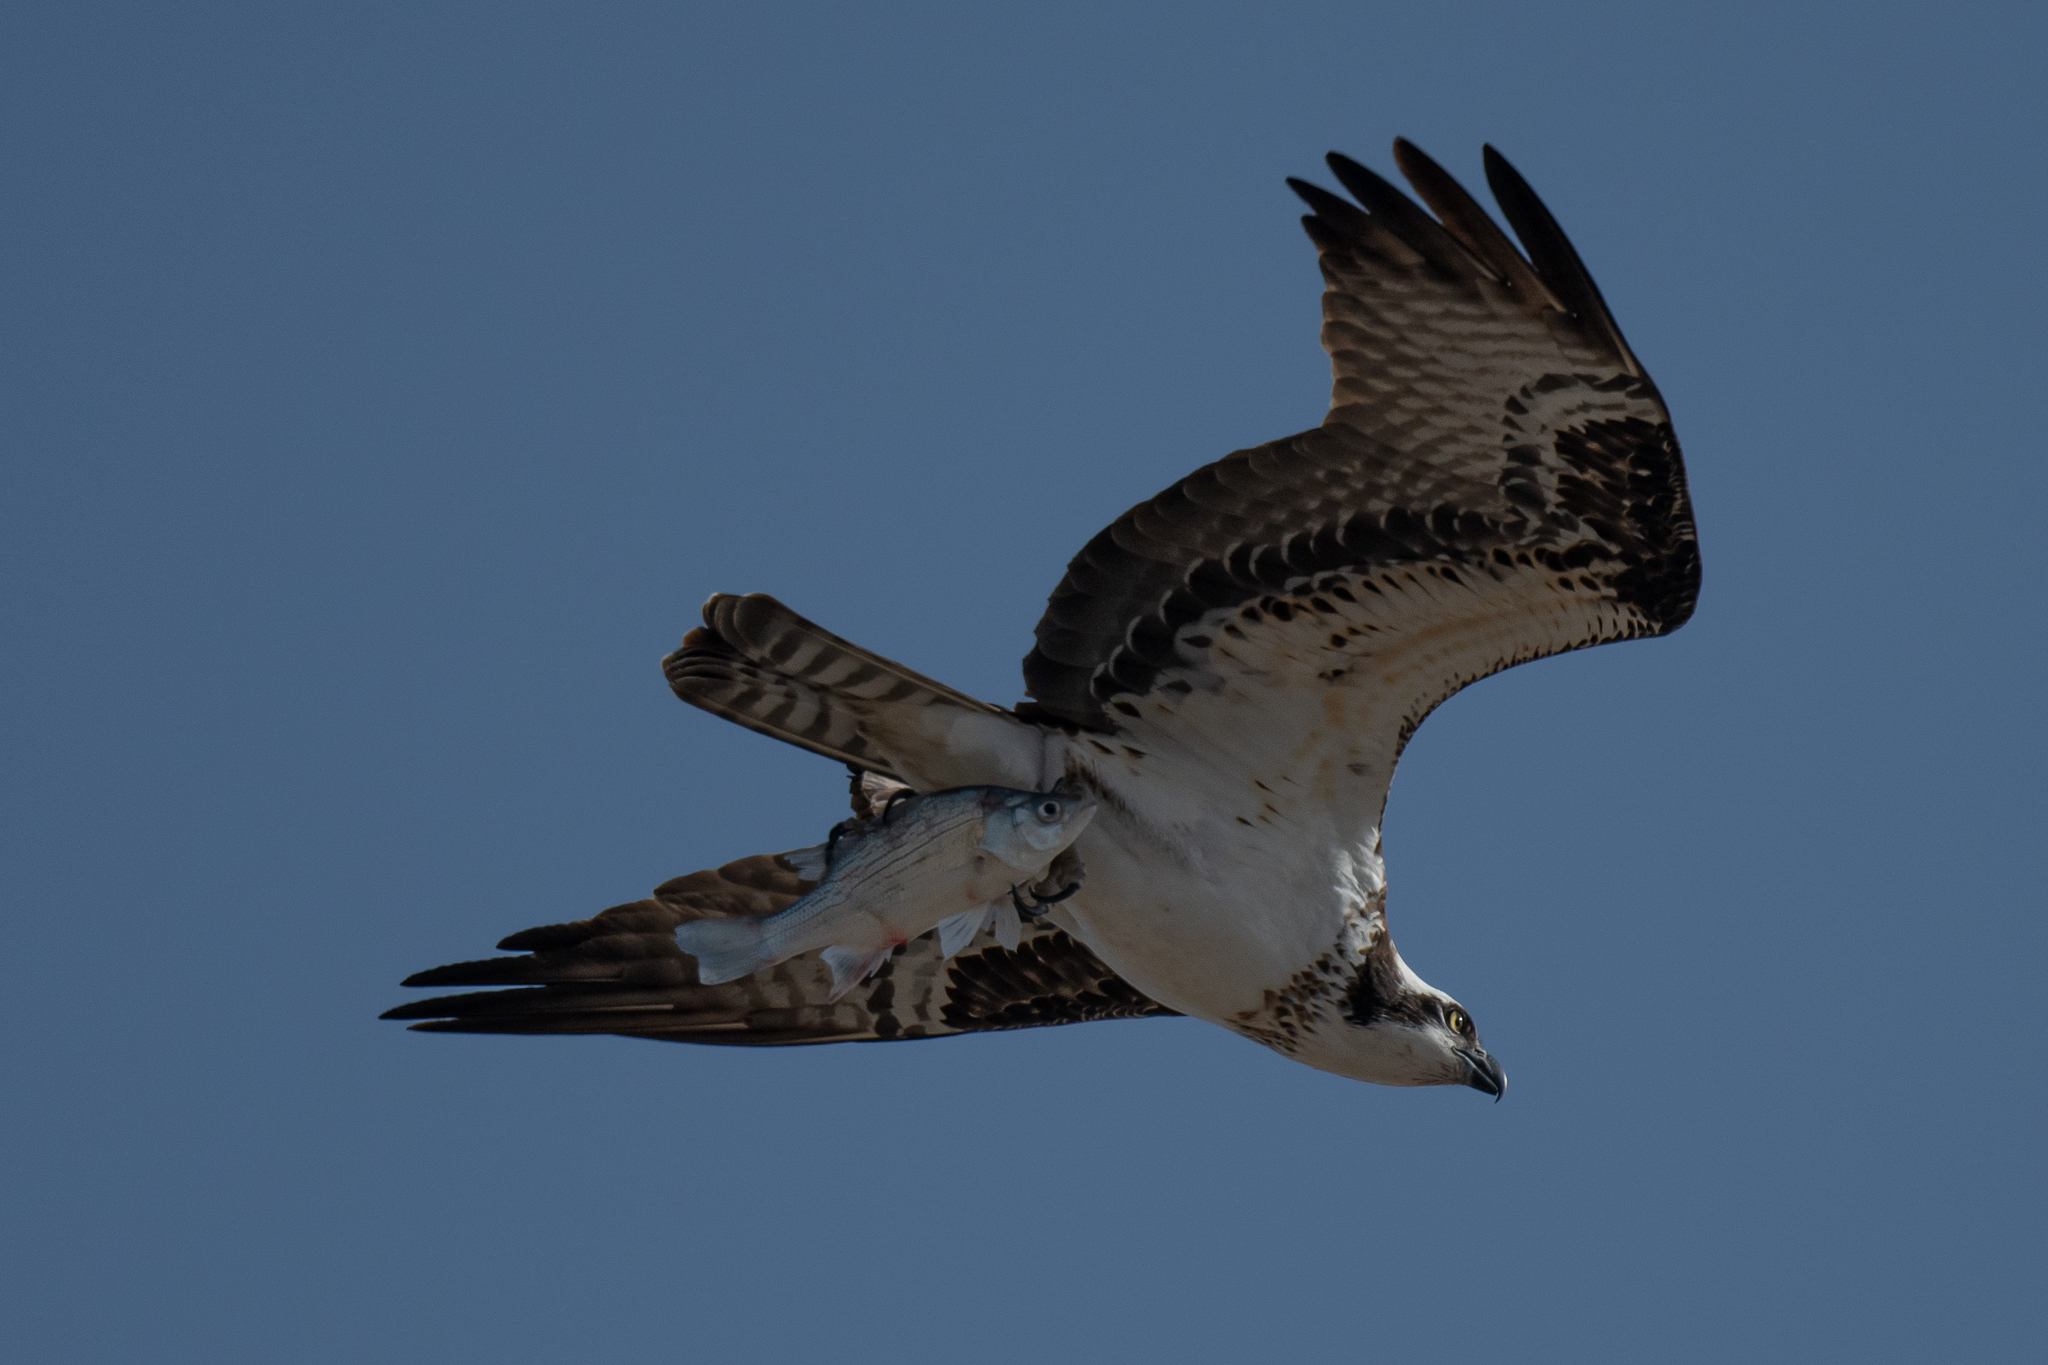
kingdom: Animalia
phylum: Chordata
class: Aves
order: Accipitriformes
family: Pandionidae
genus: Pandion
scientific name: Pandion haliaetus
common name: Osprey
